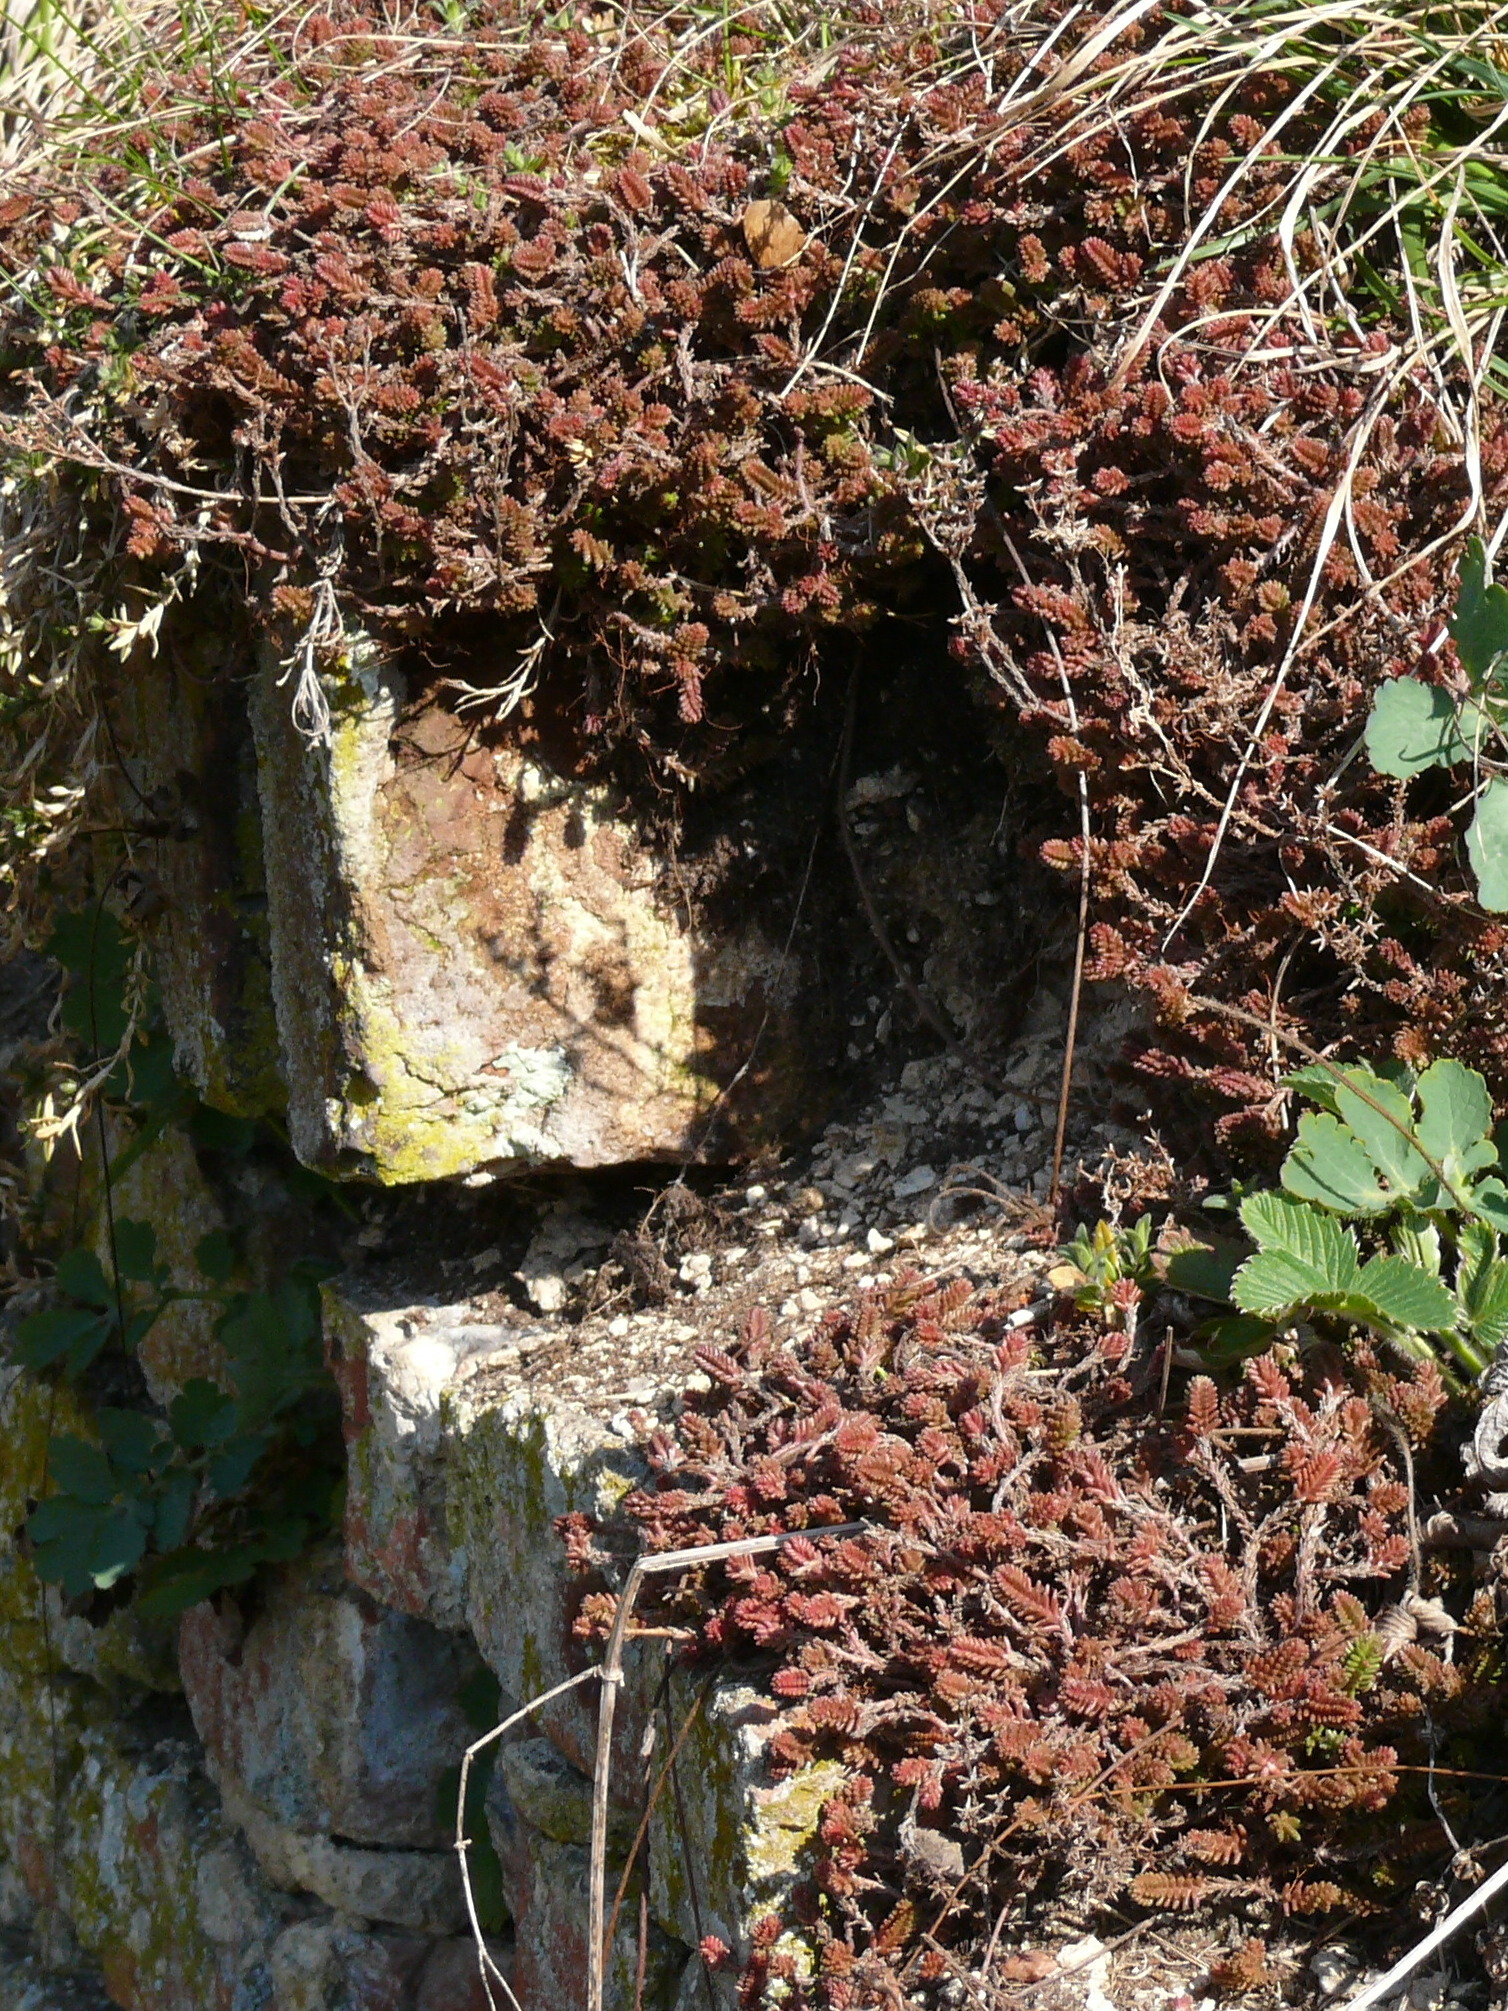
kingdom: Plantae
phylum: Tracheophyta
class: Magnoliopsida
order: Saxifragales
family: Crassulaceae
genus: Sedum
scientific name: Sedum sexangulare
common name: Tasteless stonecrop
